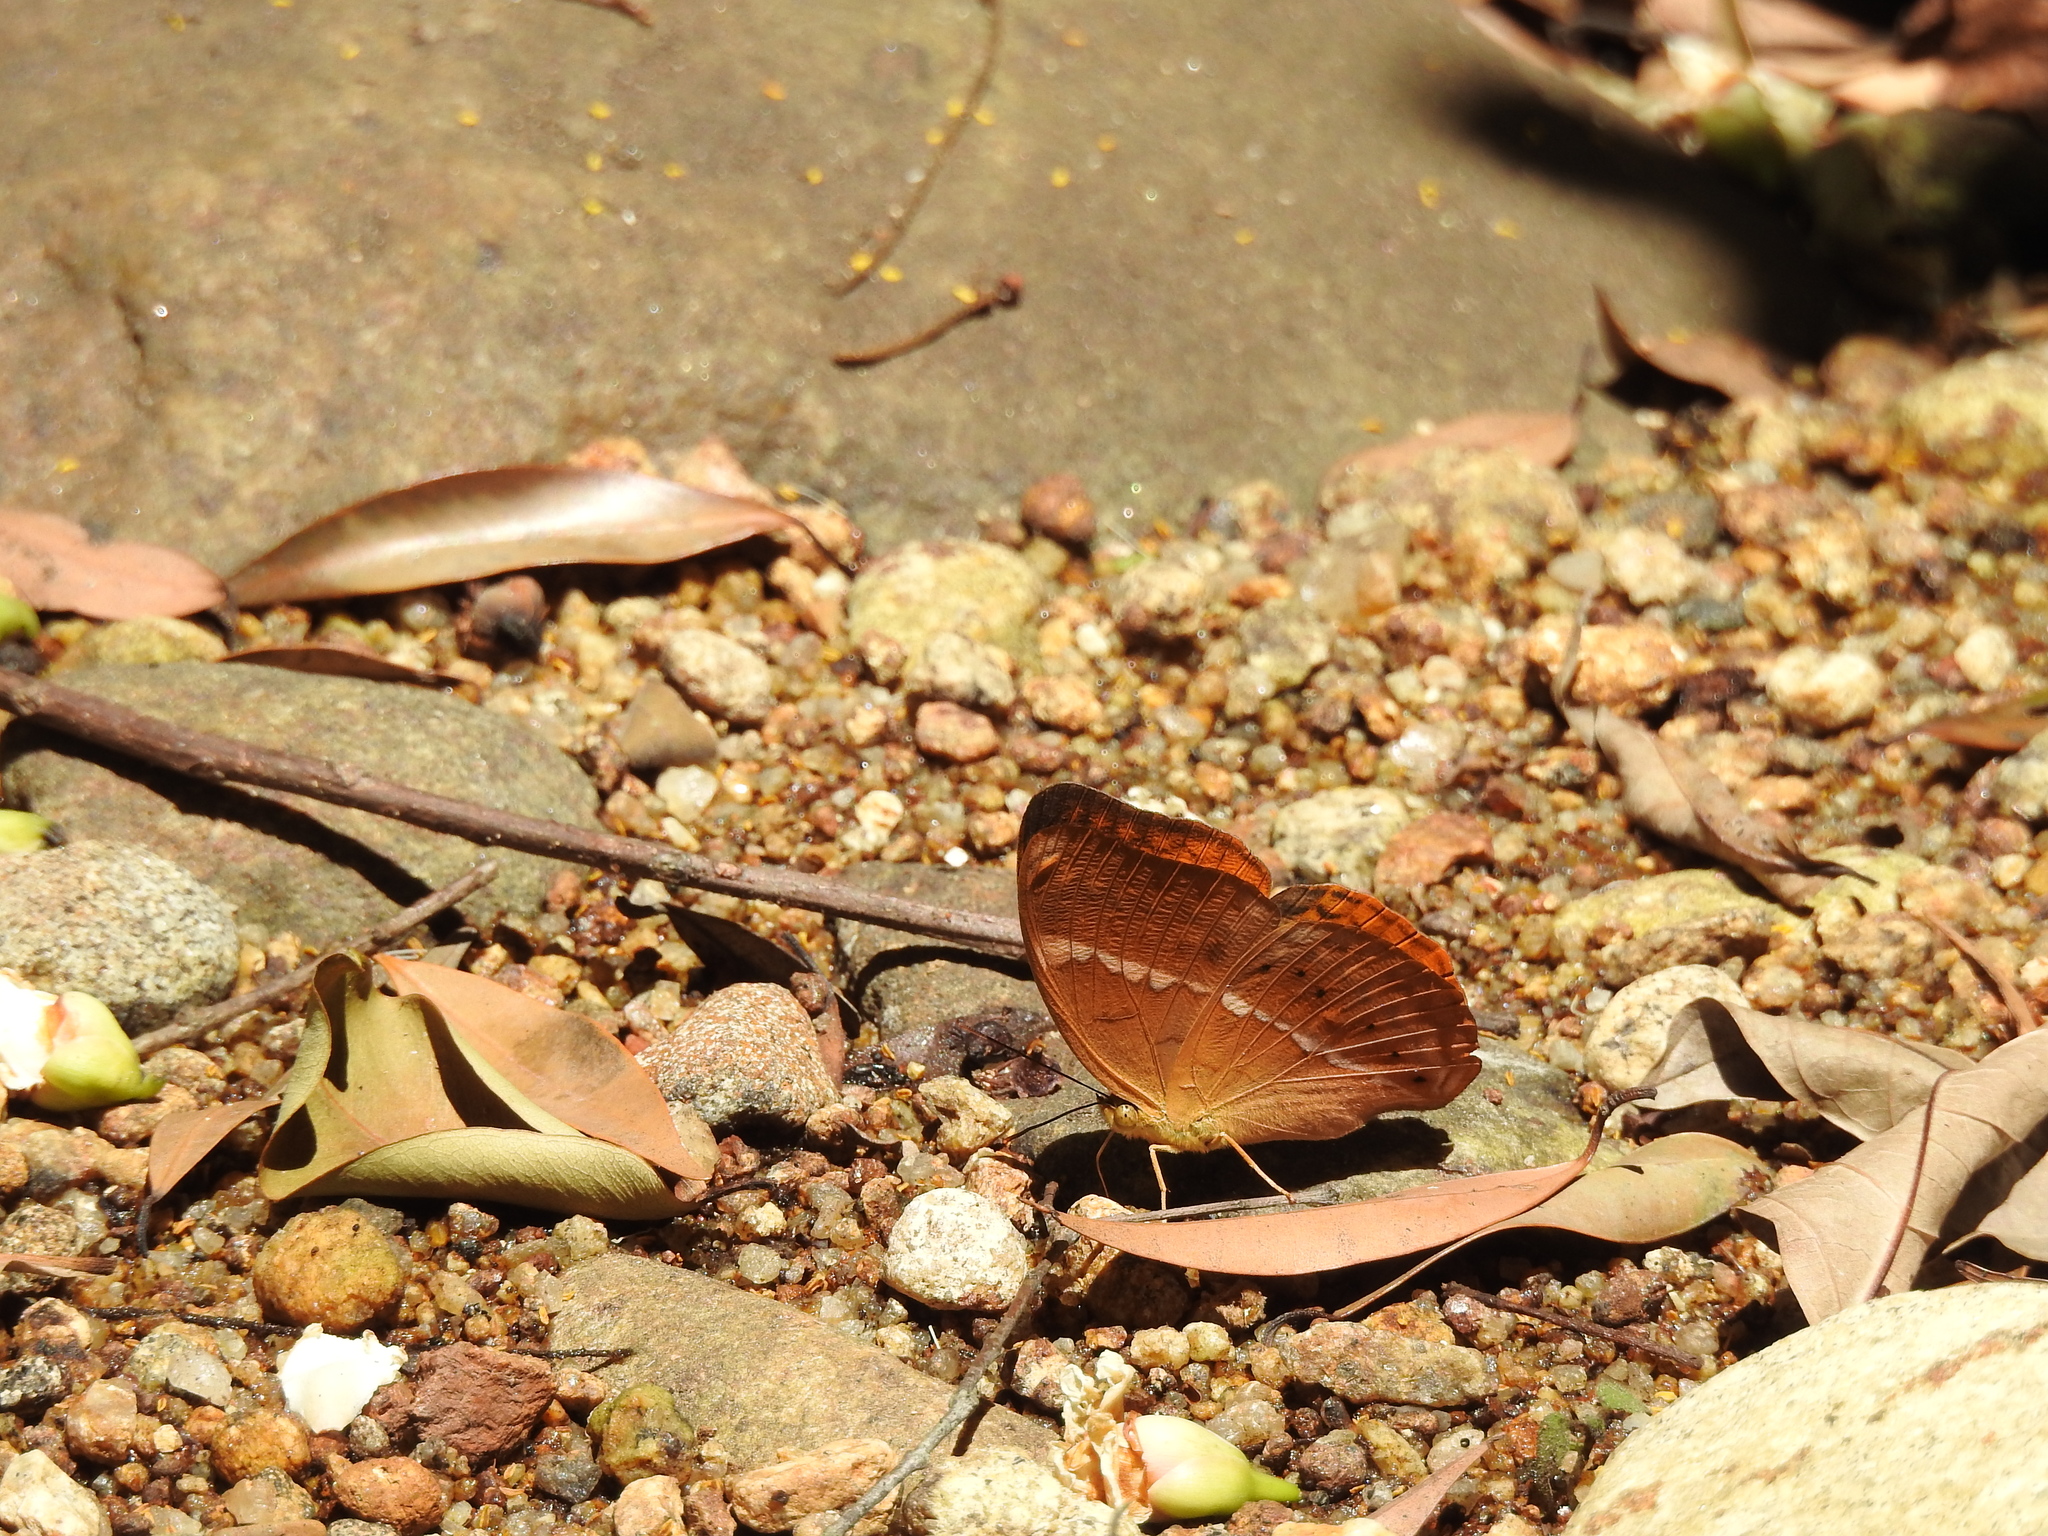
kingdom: Animalia
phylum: Arthropoda
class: Insecta
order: Lepidoptera
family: Nymphalidae
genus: Cirrochroa
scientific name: Cirrochroa thais
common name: Tamil yeoman
